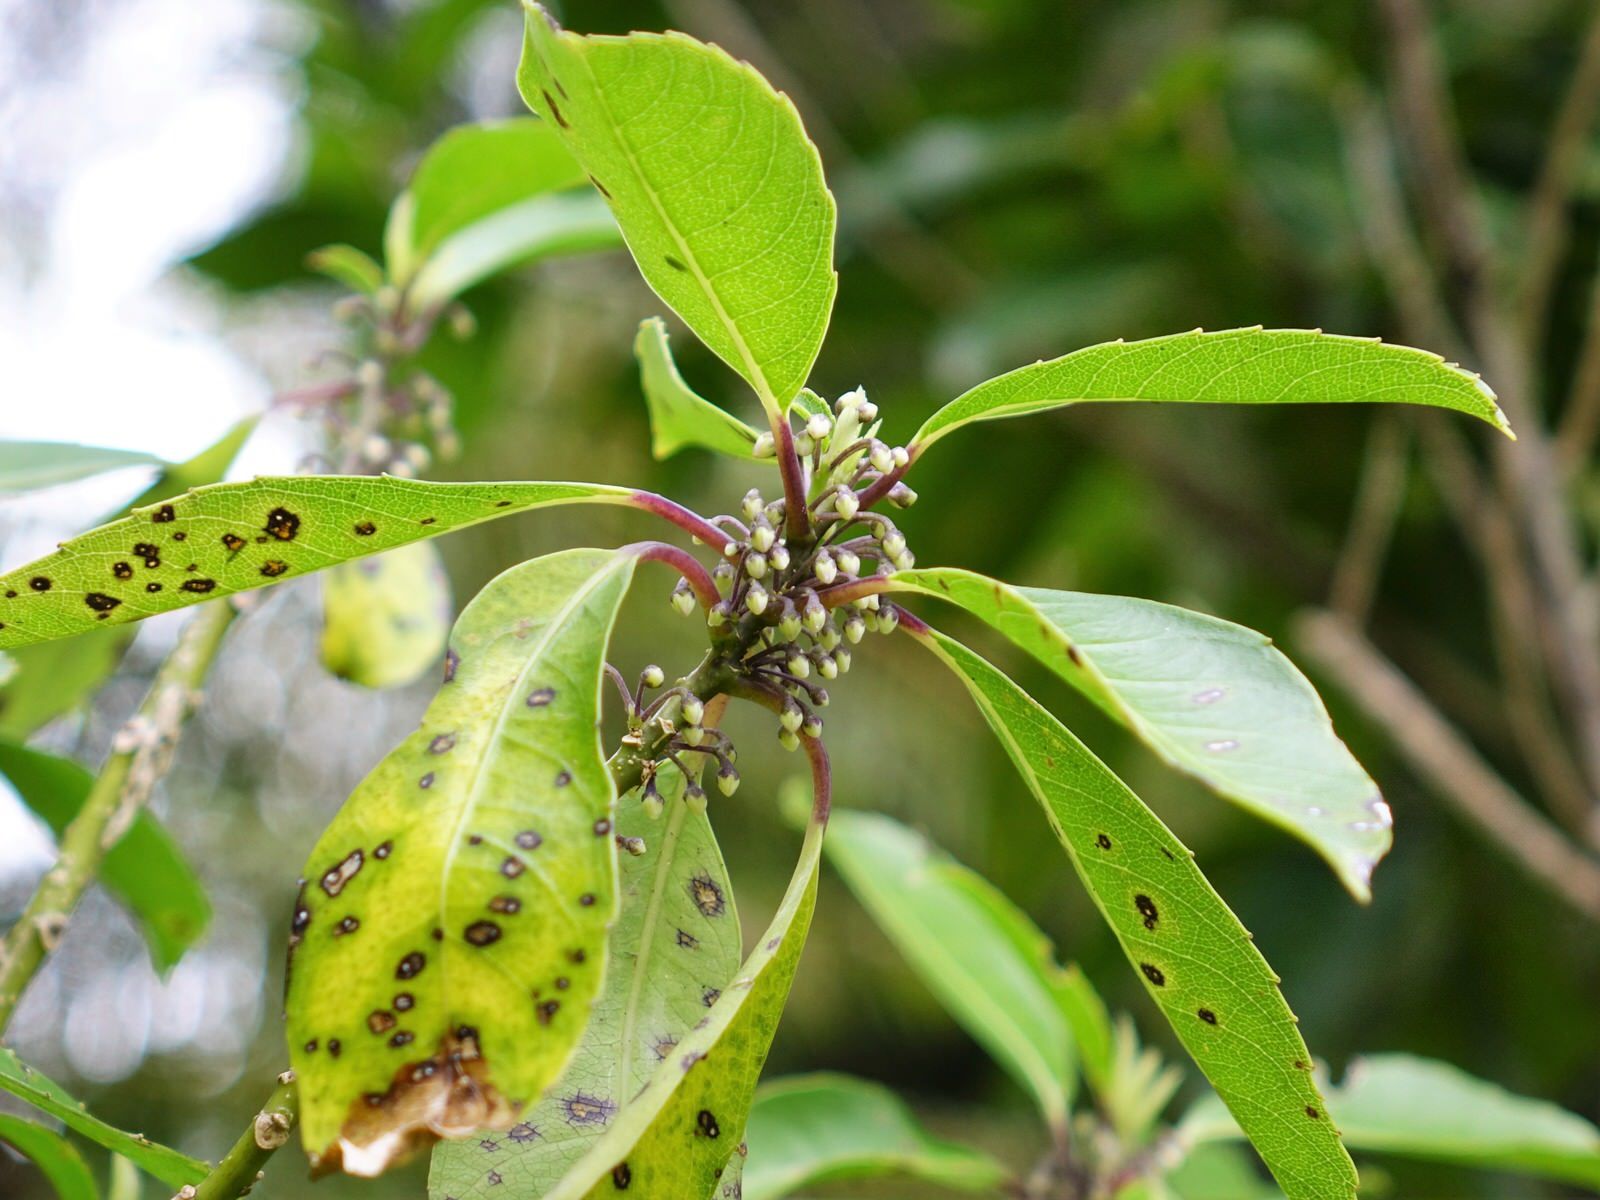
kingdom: Plantae
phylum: Tracheophyta
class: Magnoliopsida
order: Malpighiales
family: Violaceae
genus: Melicytus
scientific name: Melicytus macrophyllus
